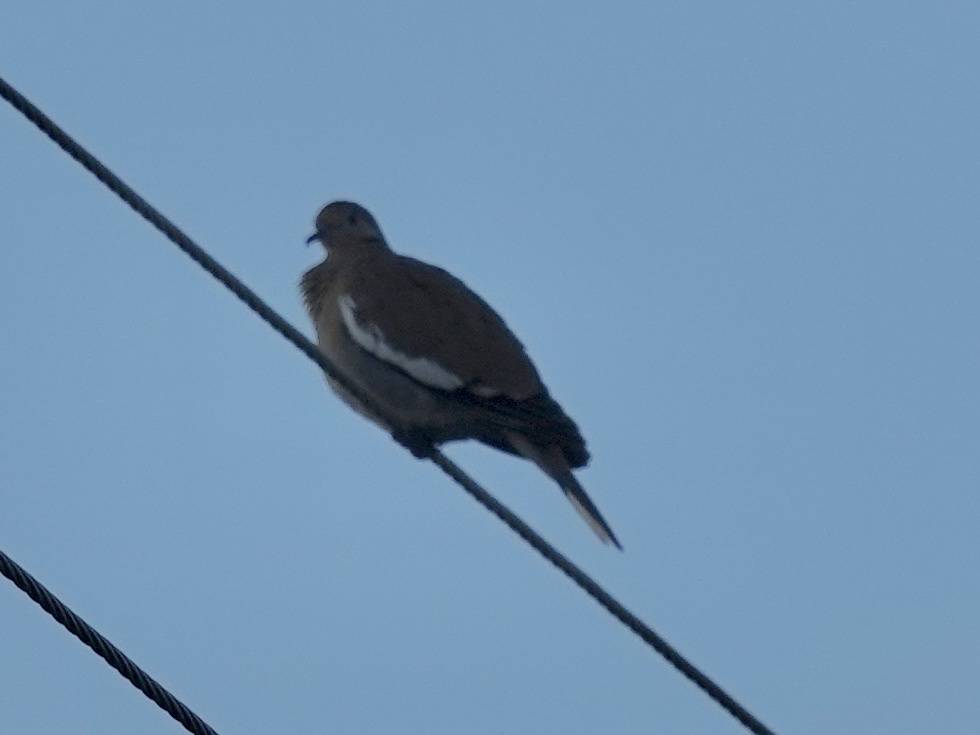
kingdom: Animalia
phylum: Chordata
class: Aves
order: Columbiformes
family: Columbidae
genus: Zenaida
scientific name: Zenaida asiatica
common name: White-winged dove
